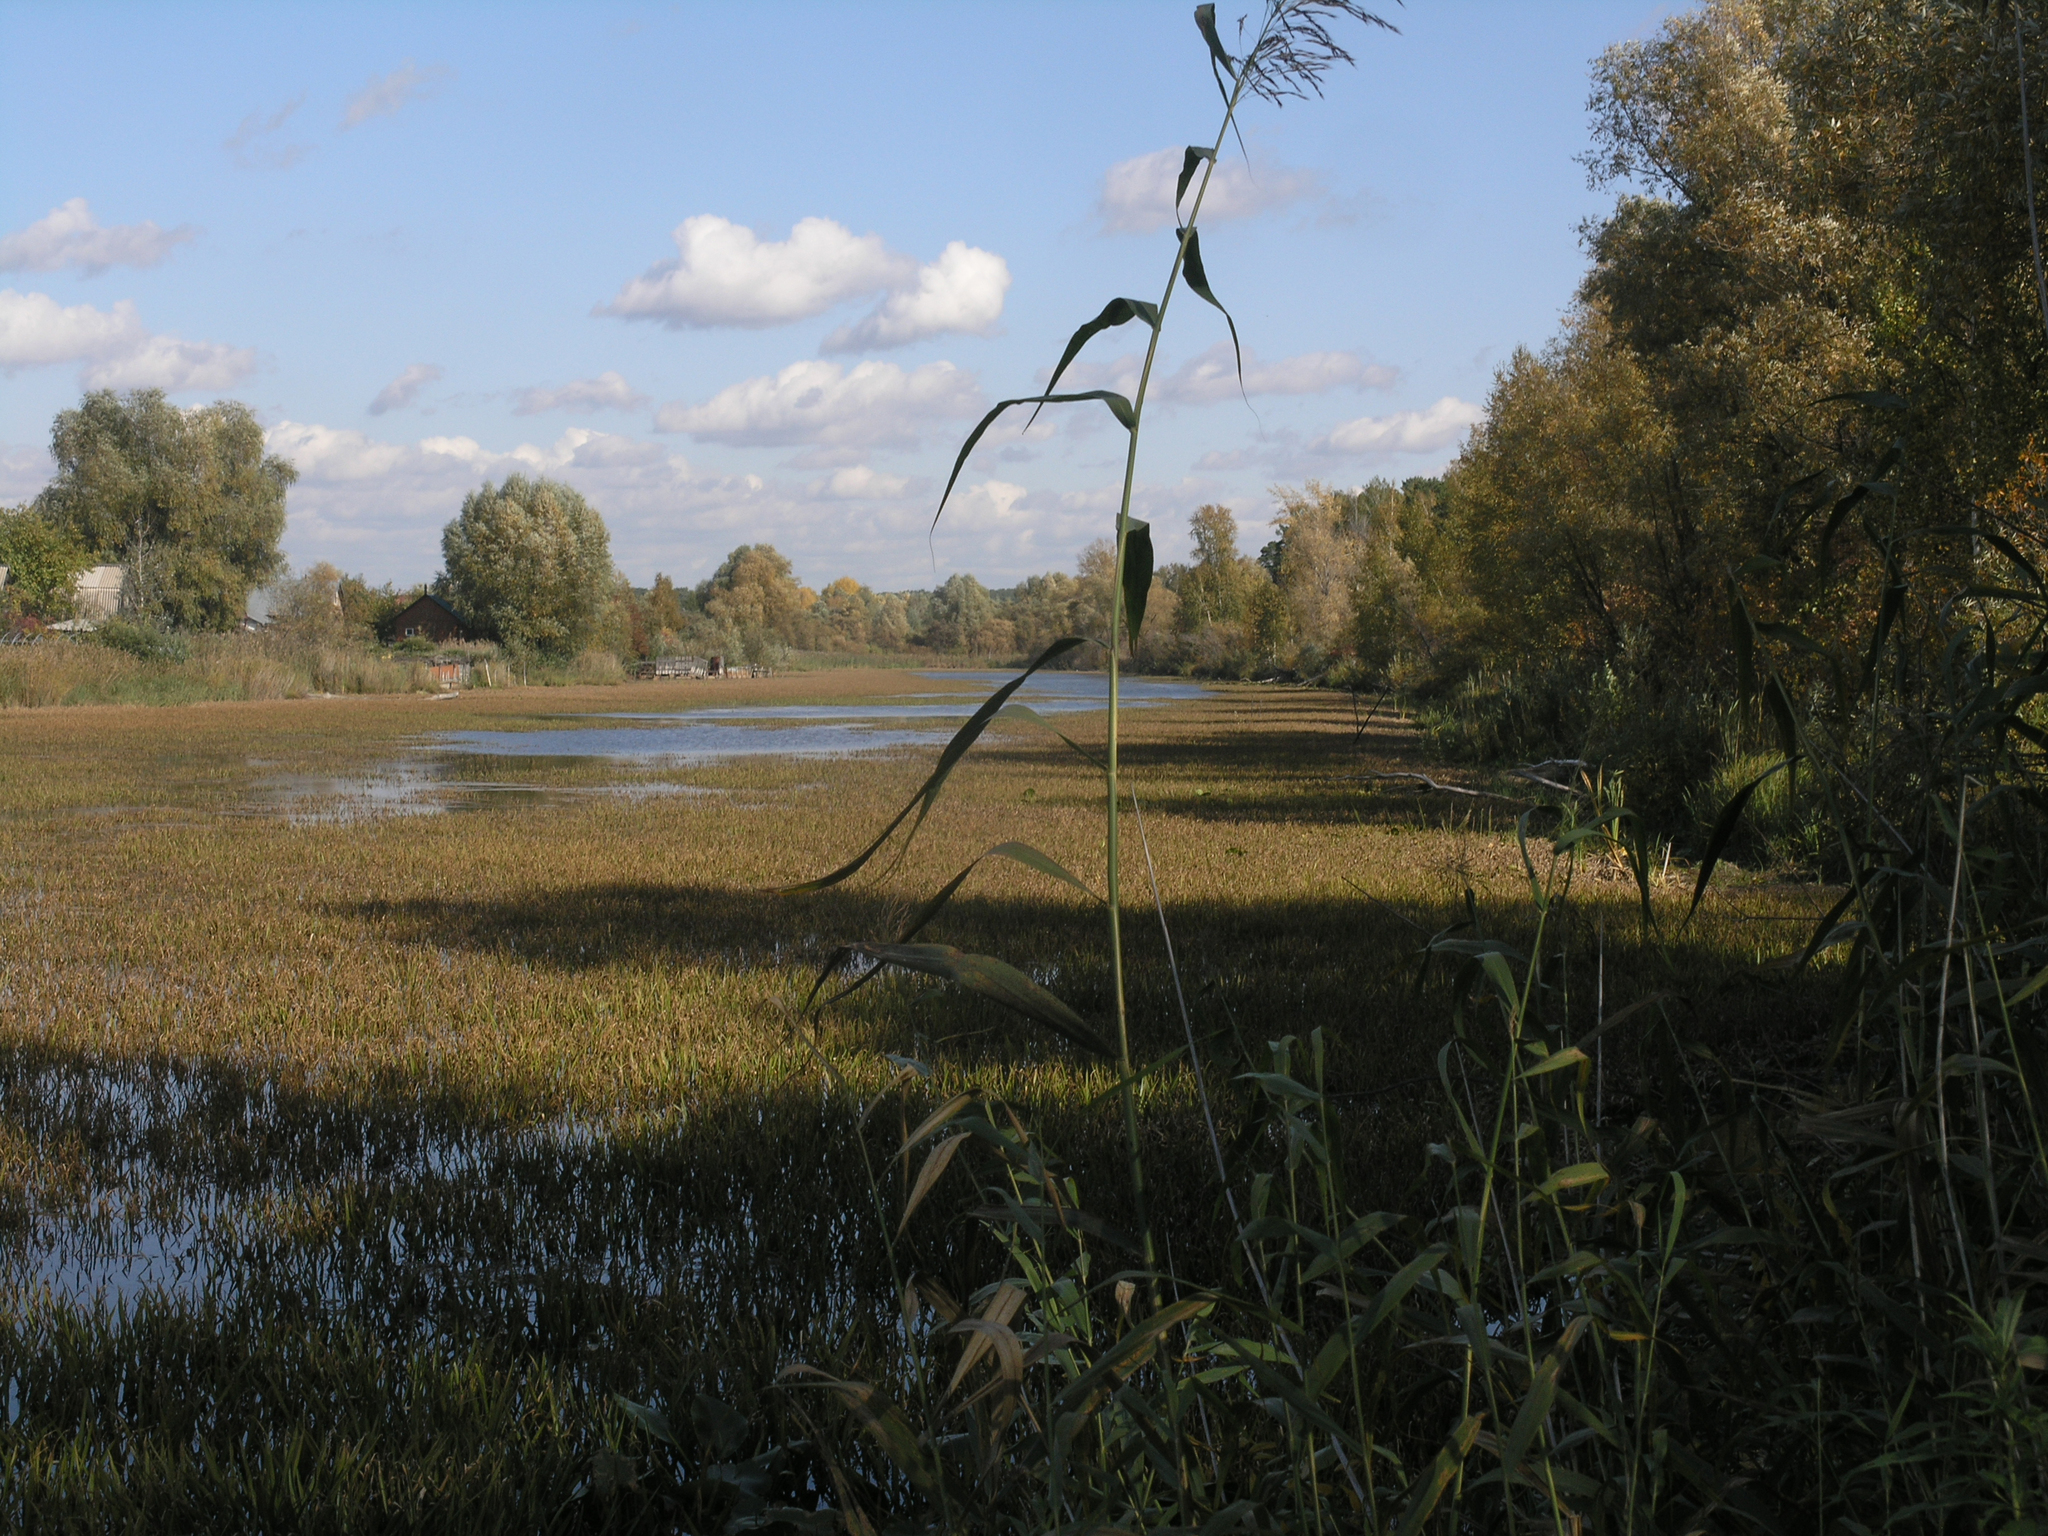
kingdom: Plantae
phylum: Tracheophyta
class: Liliopsida
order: Alismatales
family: Hydrocharitaceae
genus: Stratiotes
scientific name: Stratiotes aloides
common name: Water-soldier
